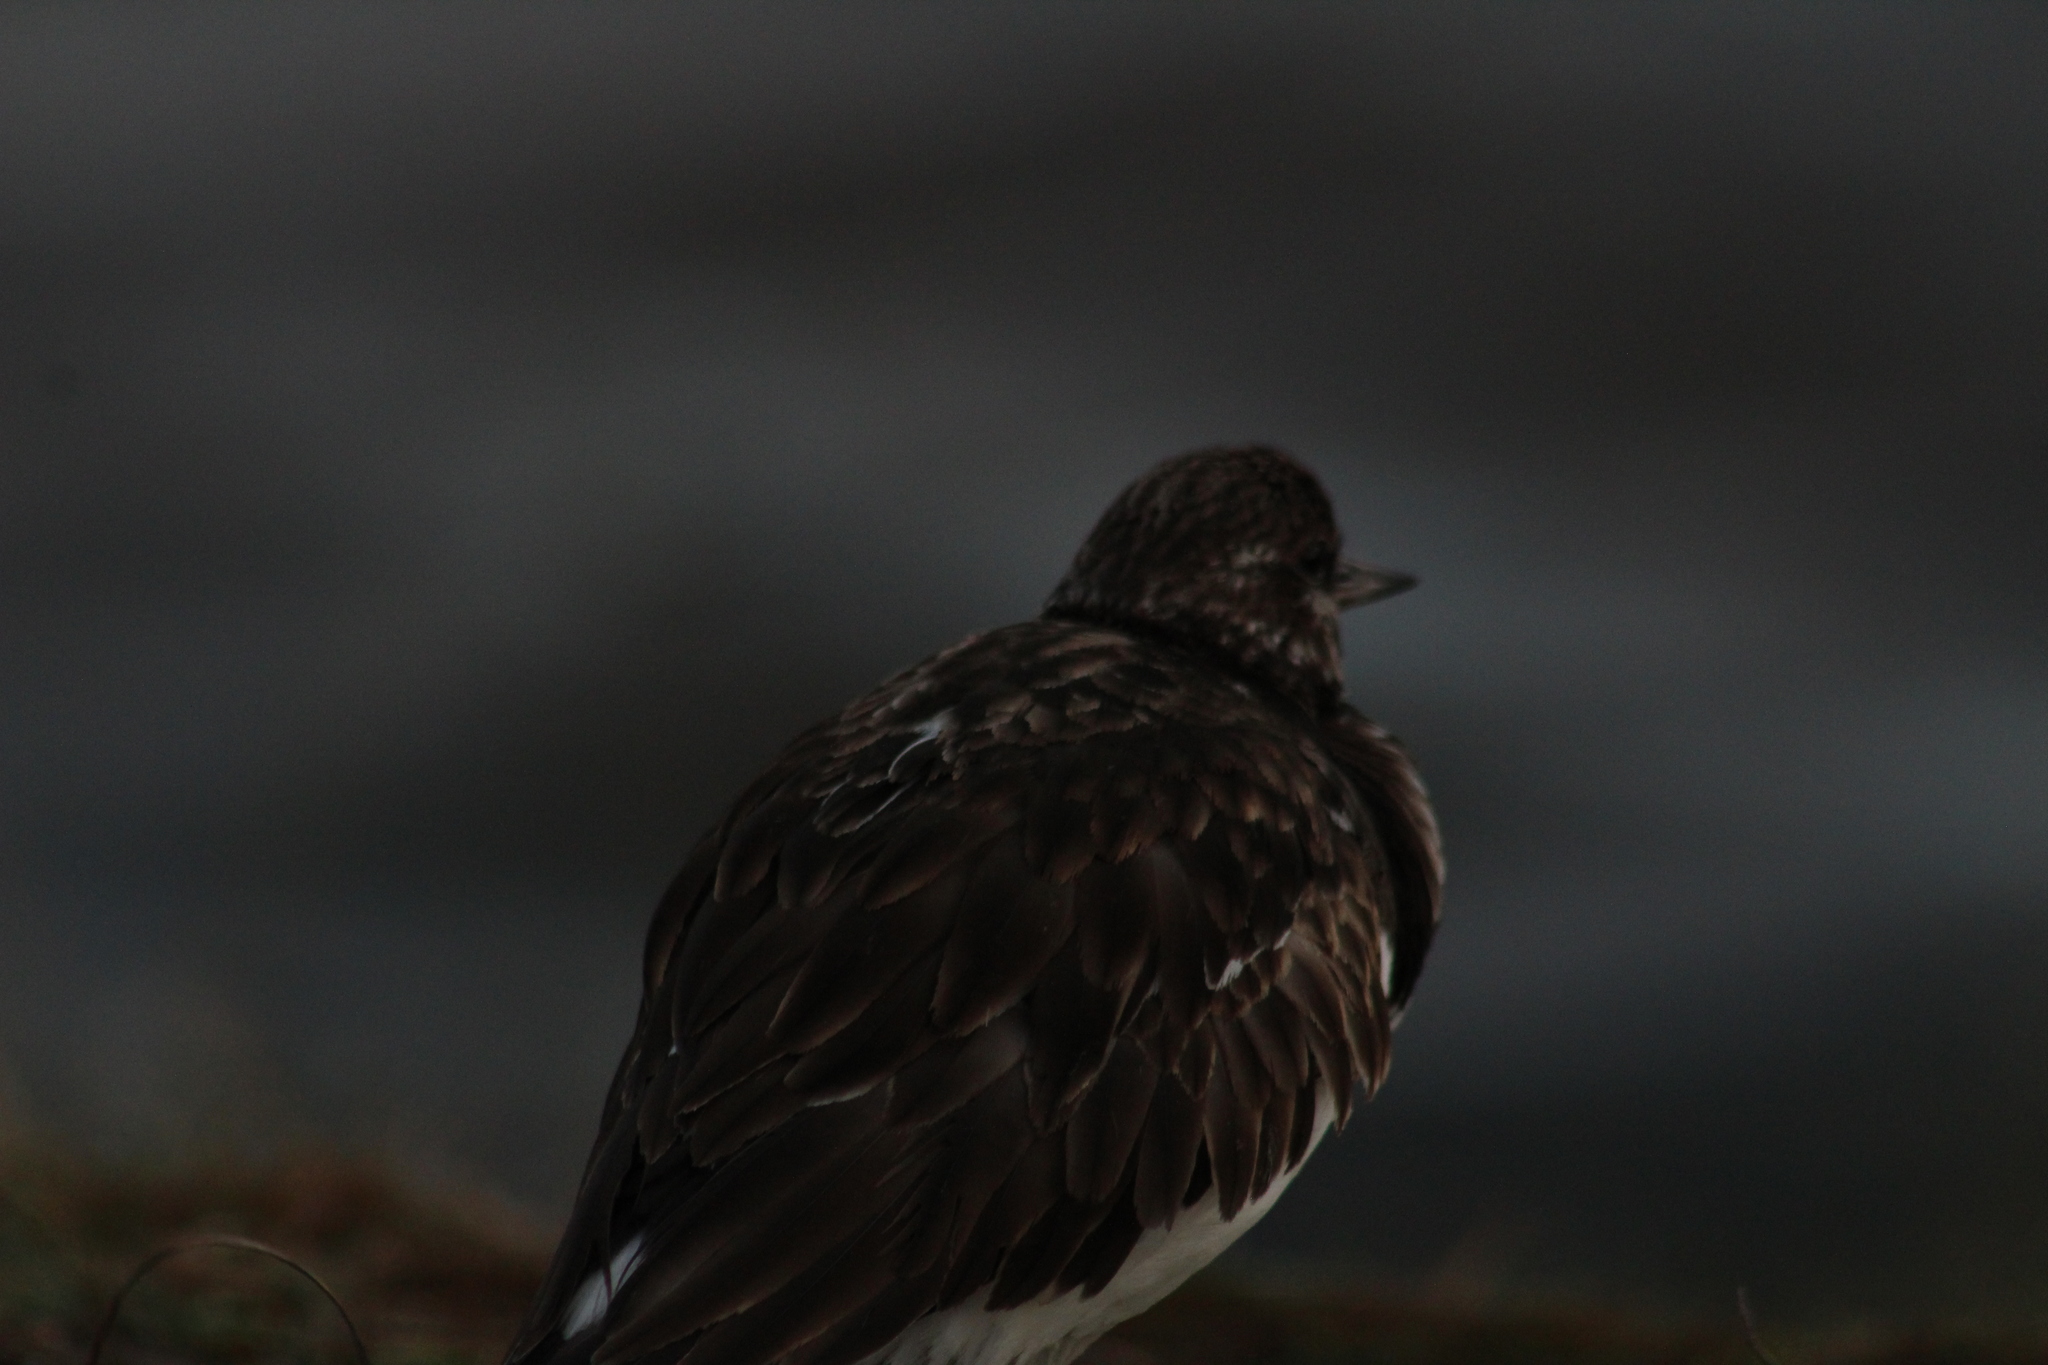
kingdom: Animalia
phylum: Chordata
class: Aves
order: Charadriiformes
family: Scolopacidae
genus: Arenaria
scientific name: Arenaria interpres
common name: Ruddy turnstone
